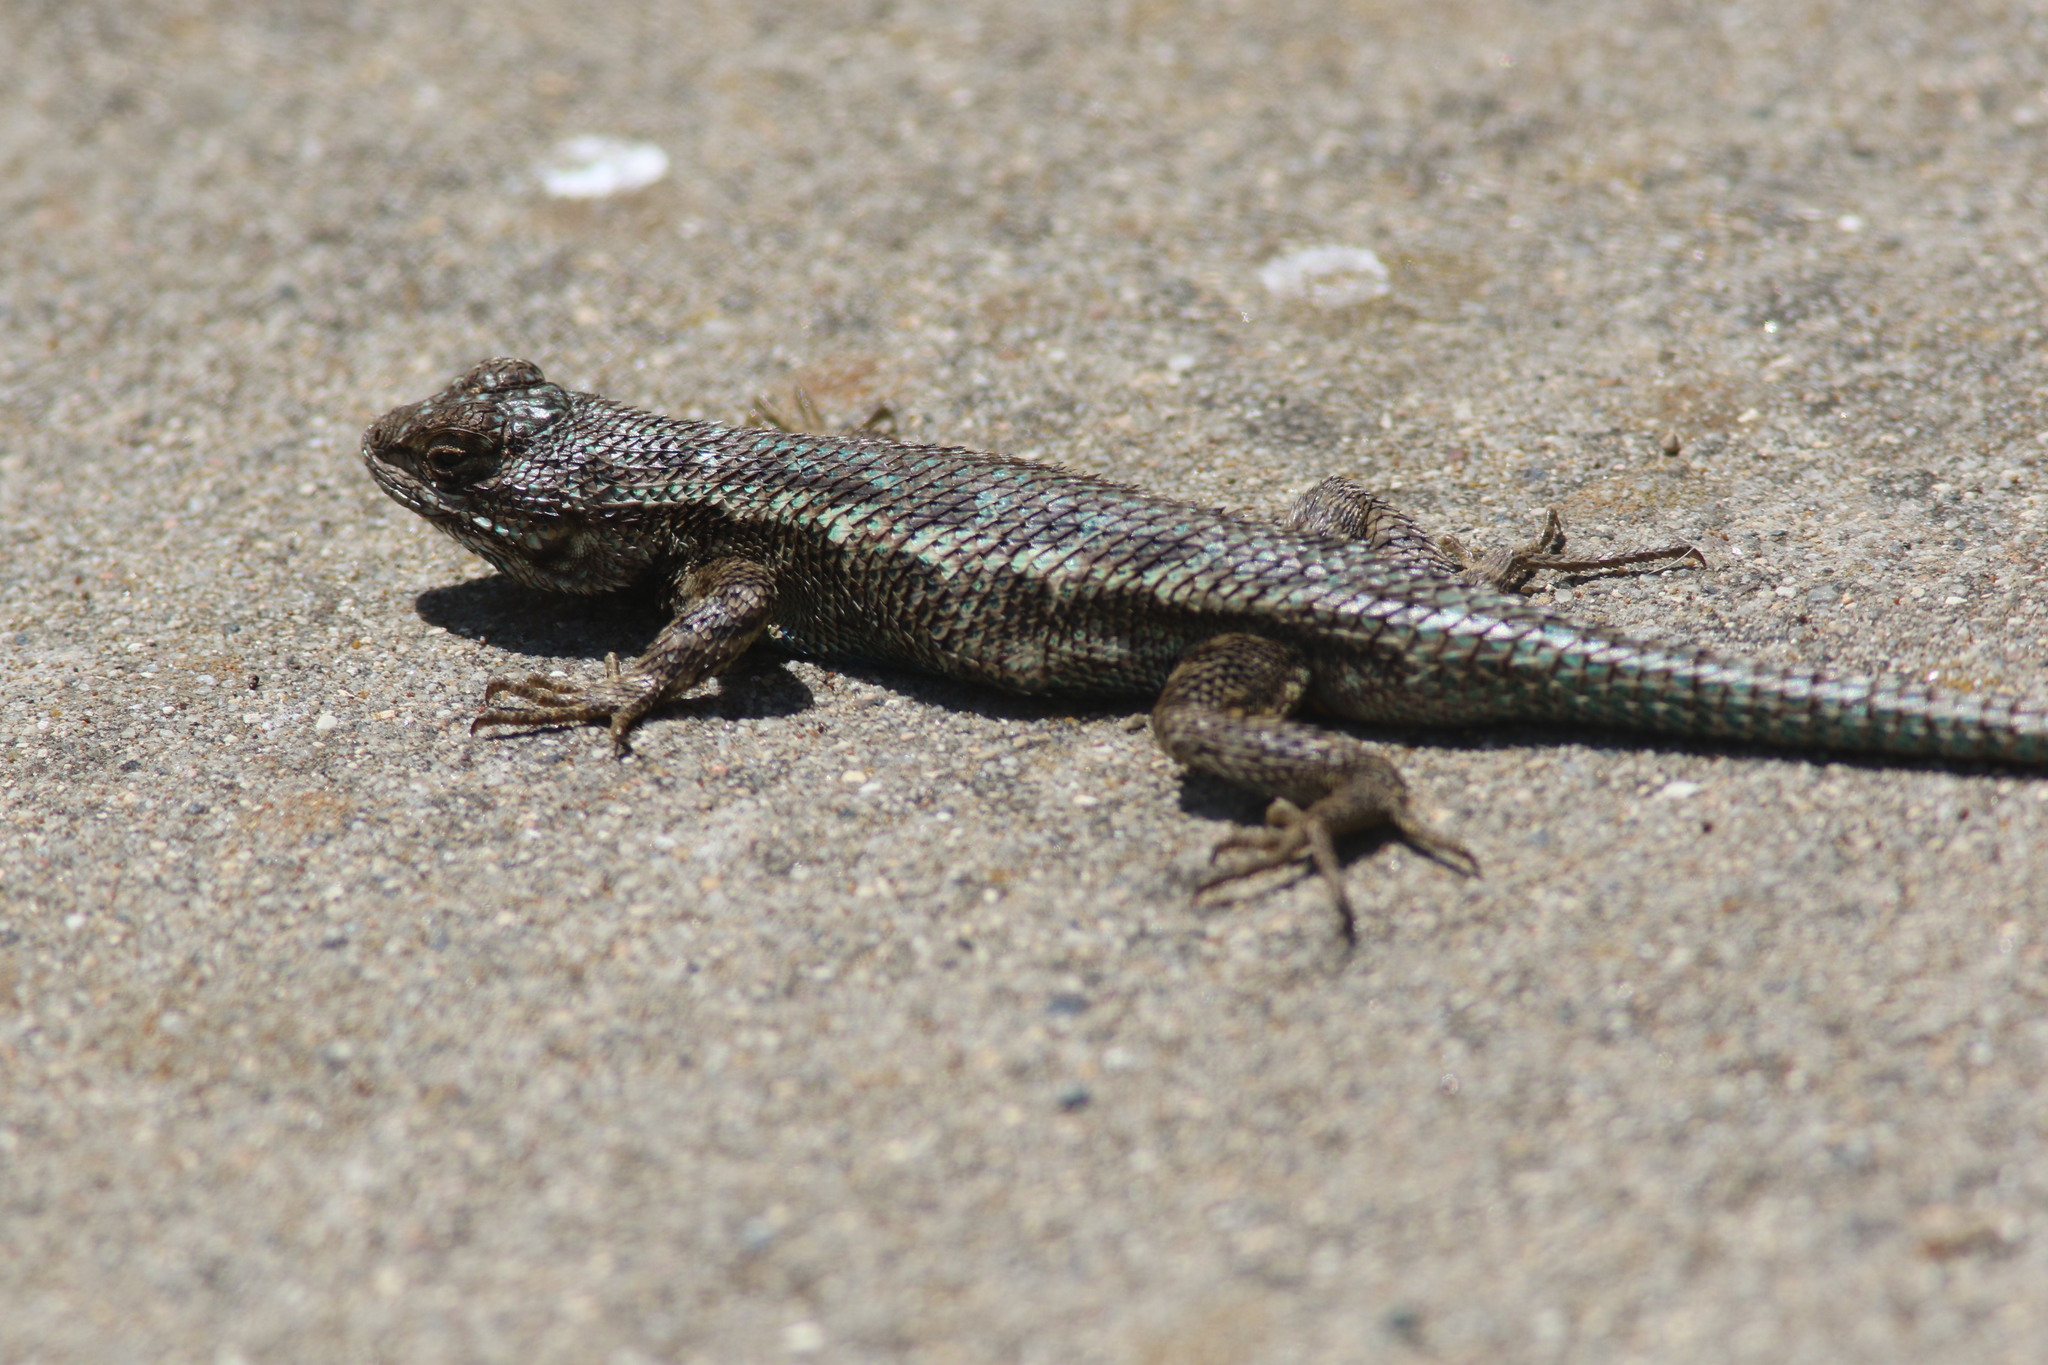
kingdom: Animalia
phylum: Chordata
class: Squamata
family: Phrynosomatidae
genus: Sceloporus
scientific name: Sceloporus occidentalis
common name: Western fence lizard
